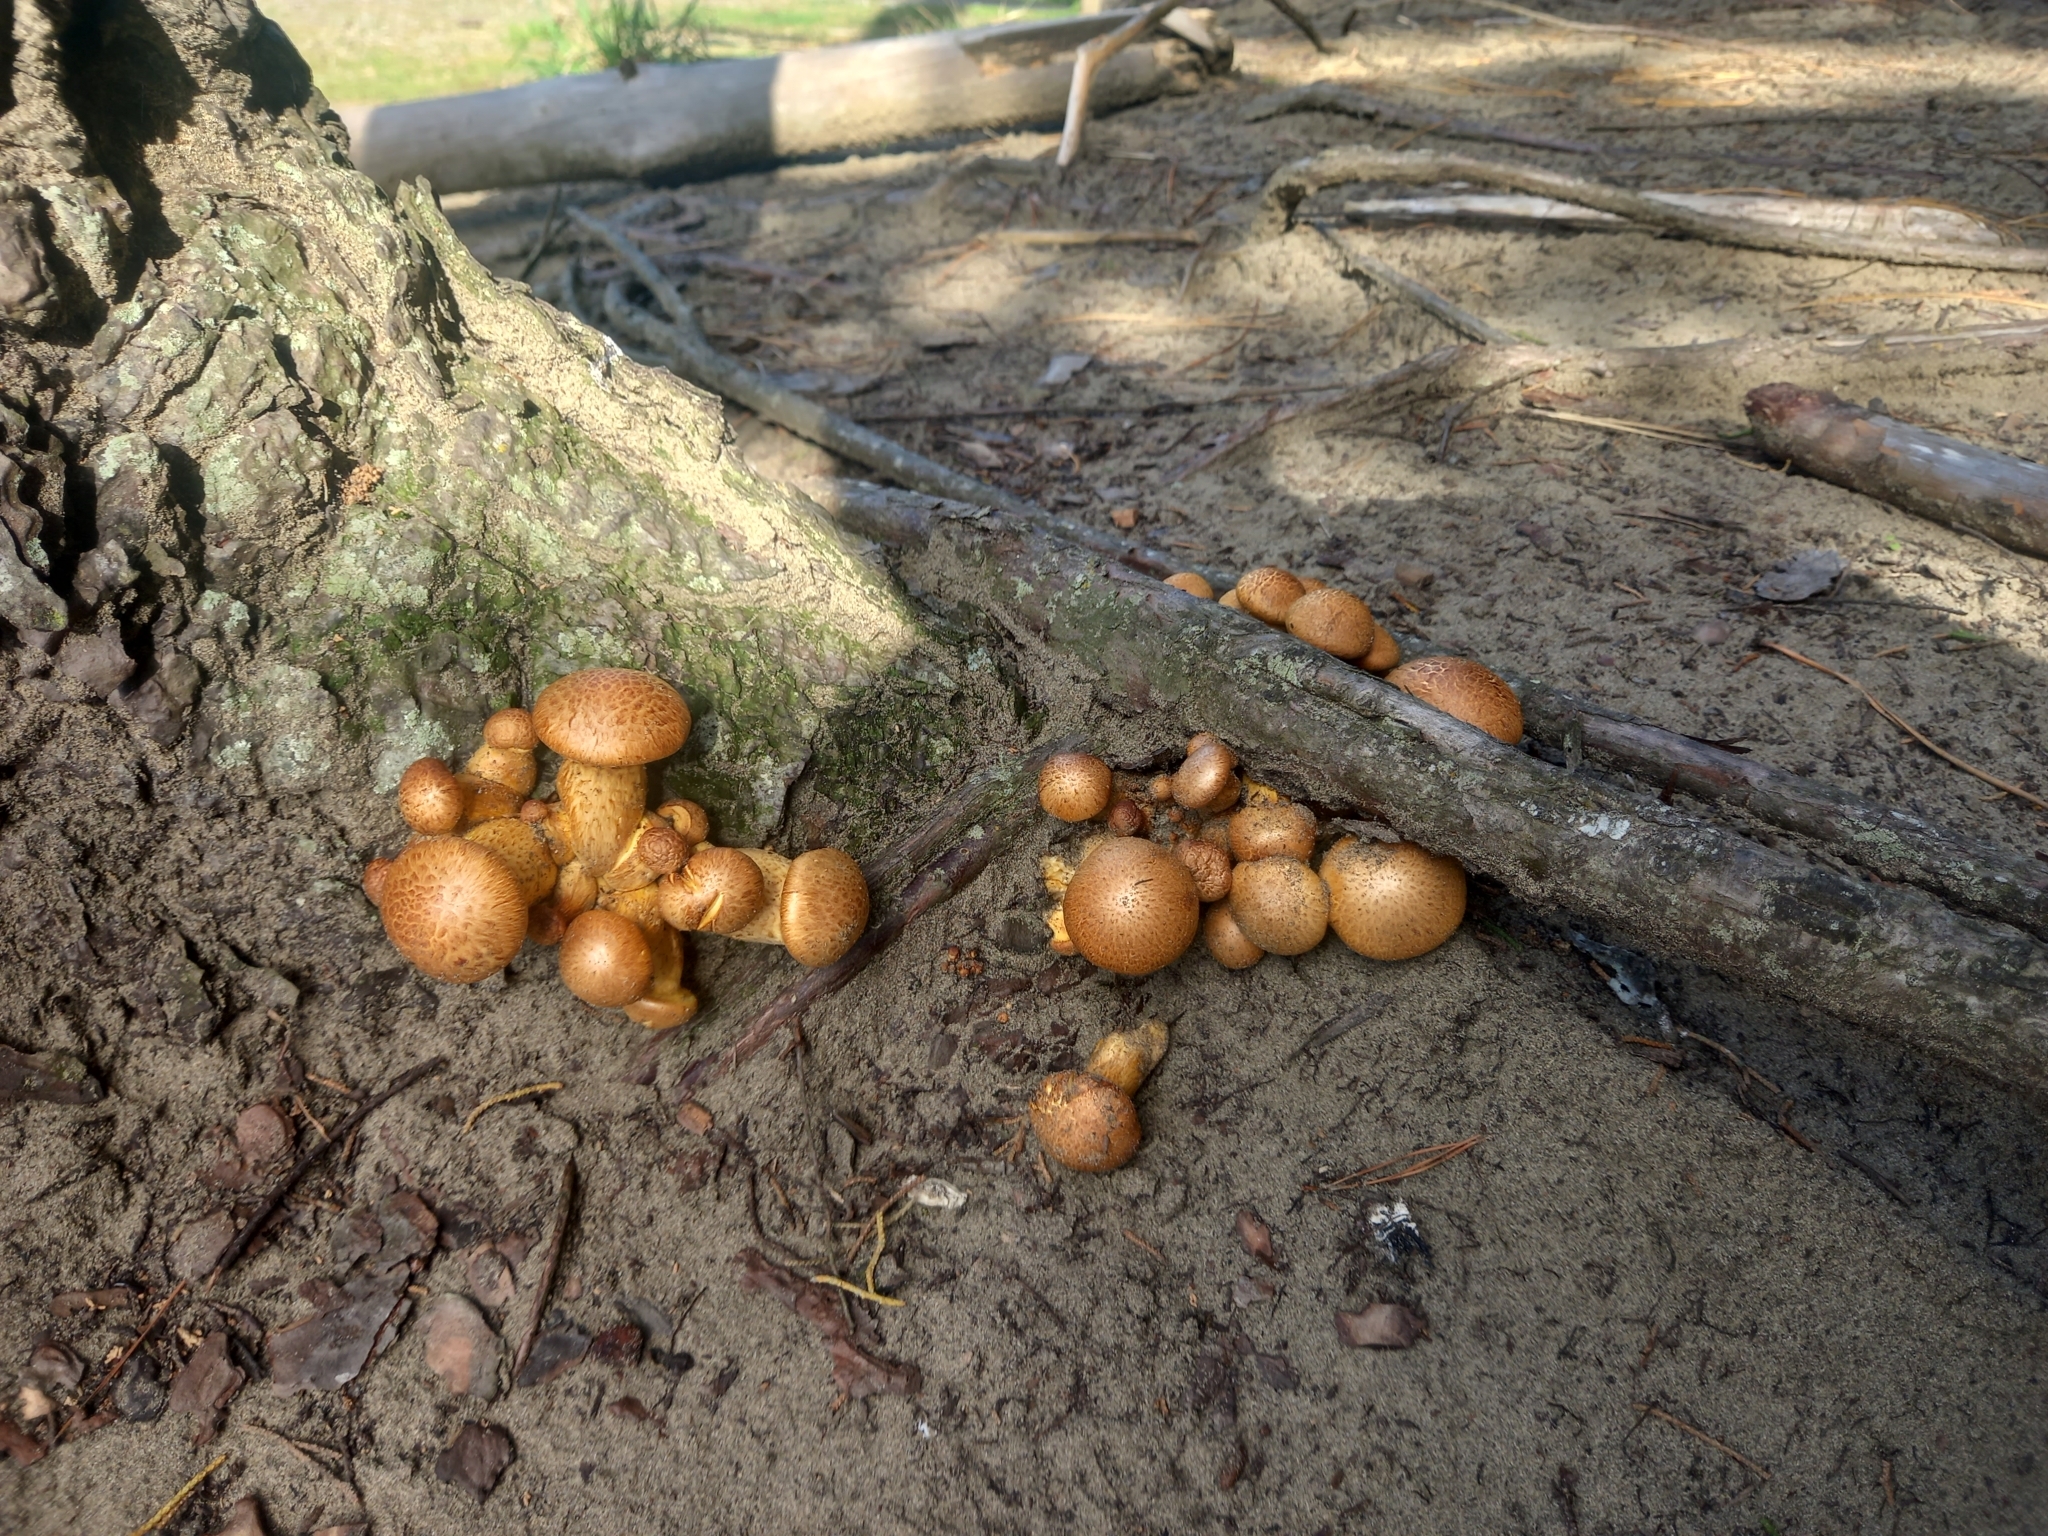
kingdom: Fungi
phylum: Basidiomycota
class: Agaricomycetes
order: Agaricales
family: Hymenogastraceae
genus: Gymnopilus
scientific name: Gymnopilus junonius
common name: Spectacular rustgill
